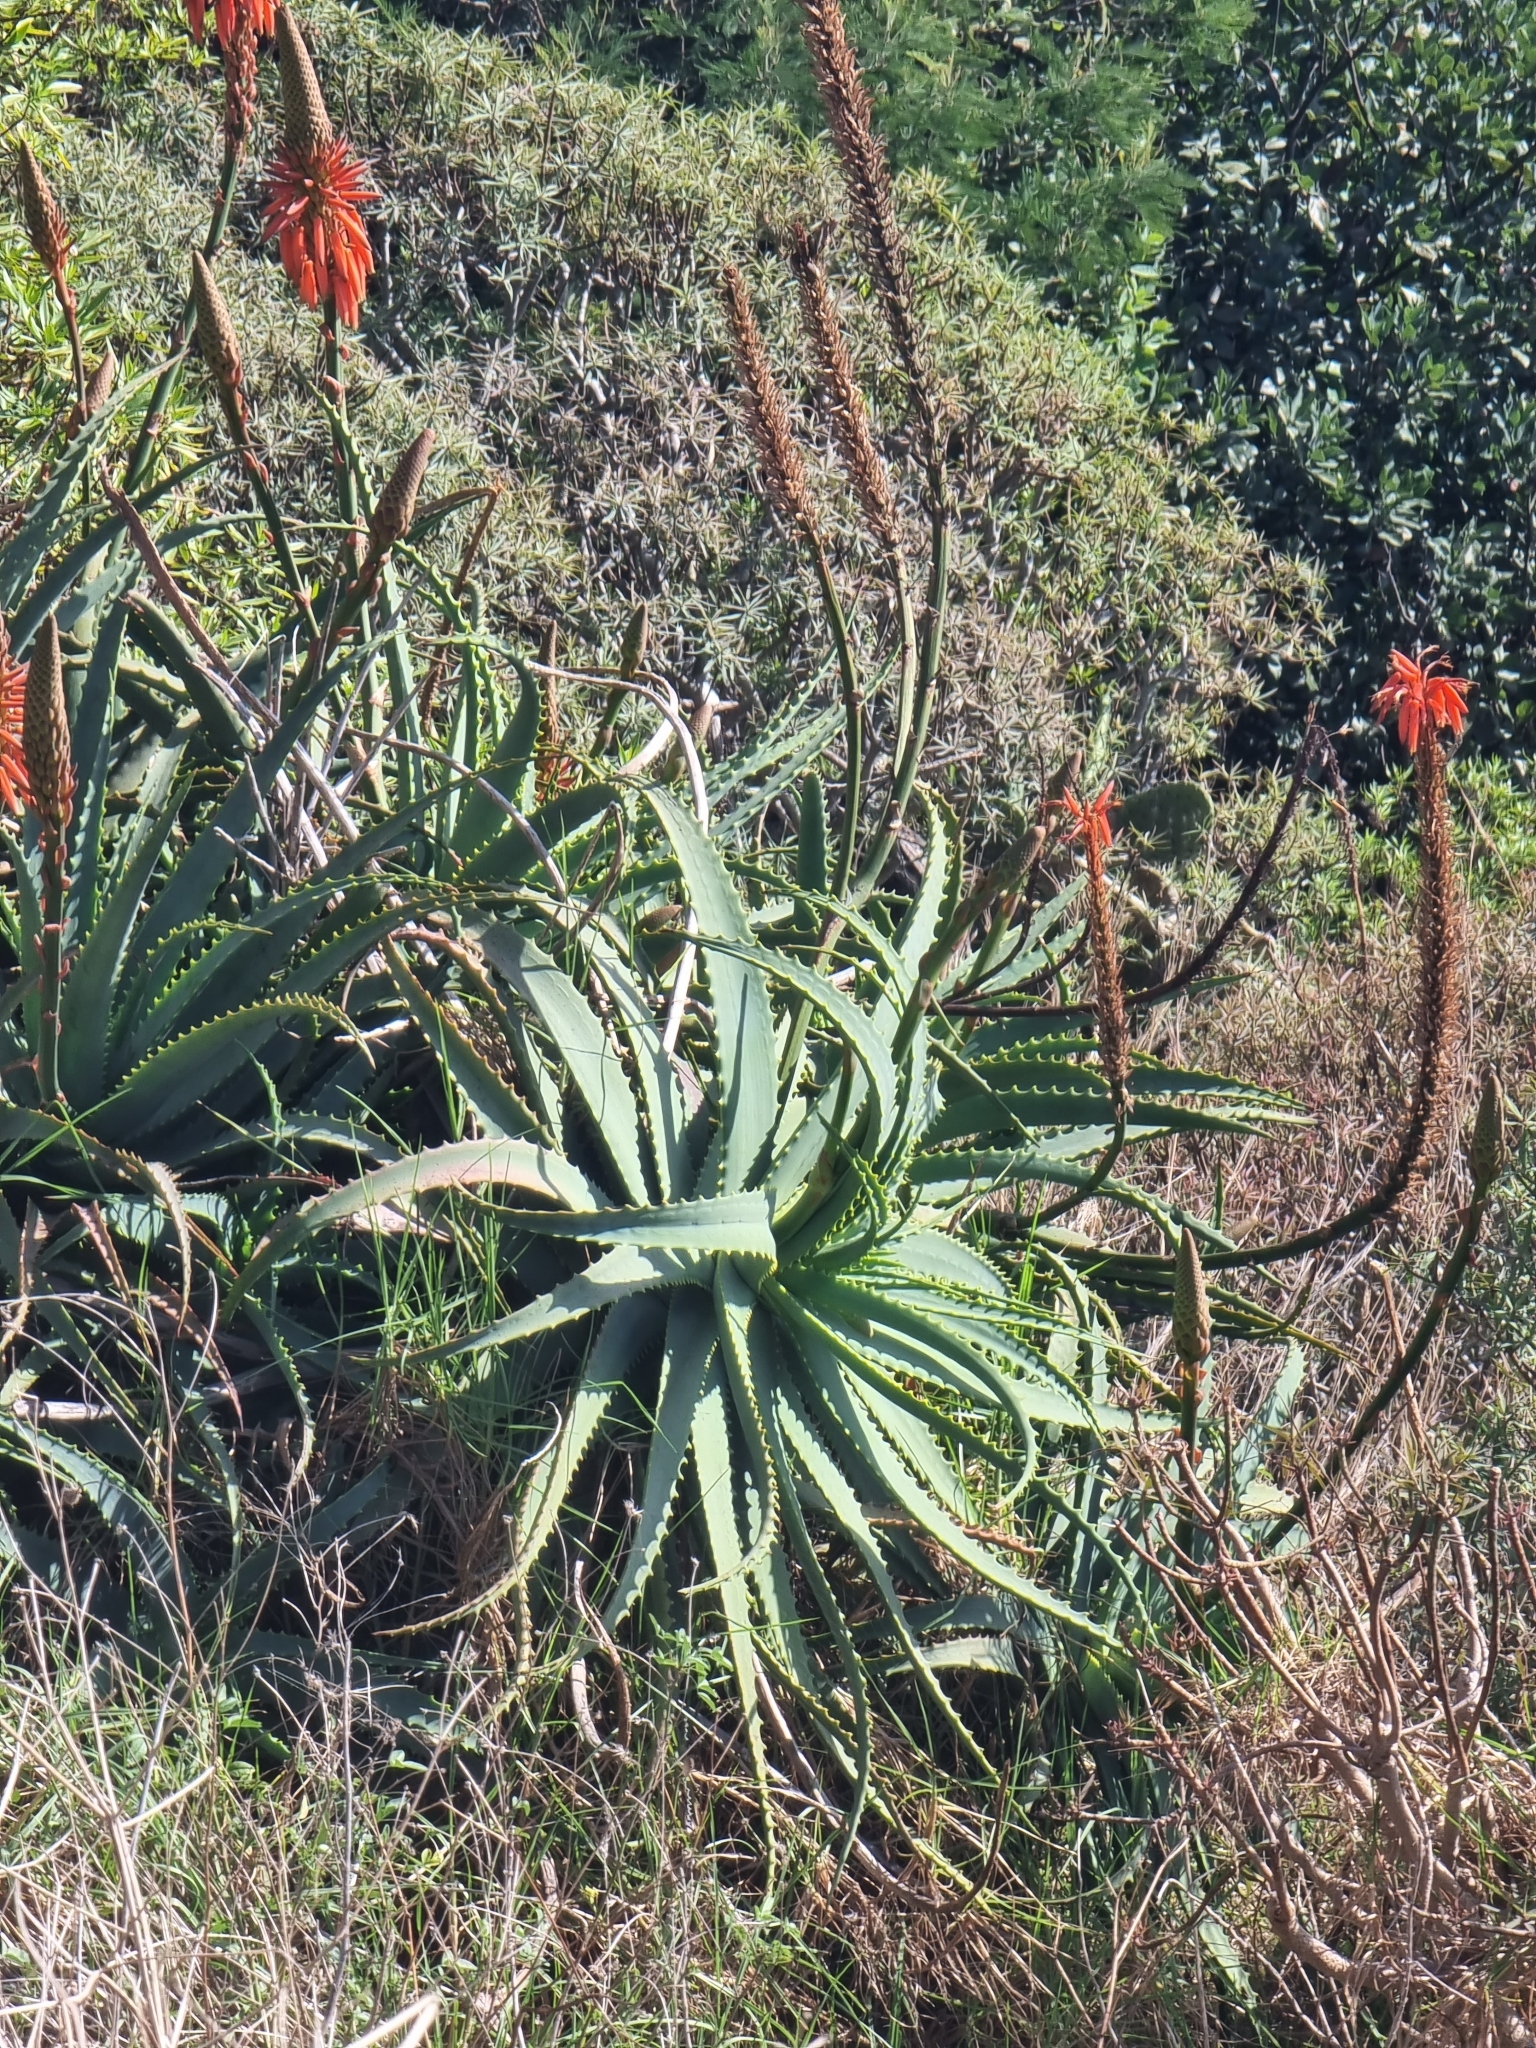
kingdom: Plantae
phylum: Tracheophyta
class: Liliopsida
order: Asparagales
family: Asphodelaceae
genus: Aloe
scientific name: Aloe arborescens
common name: Candelabra aloe
